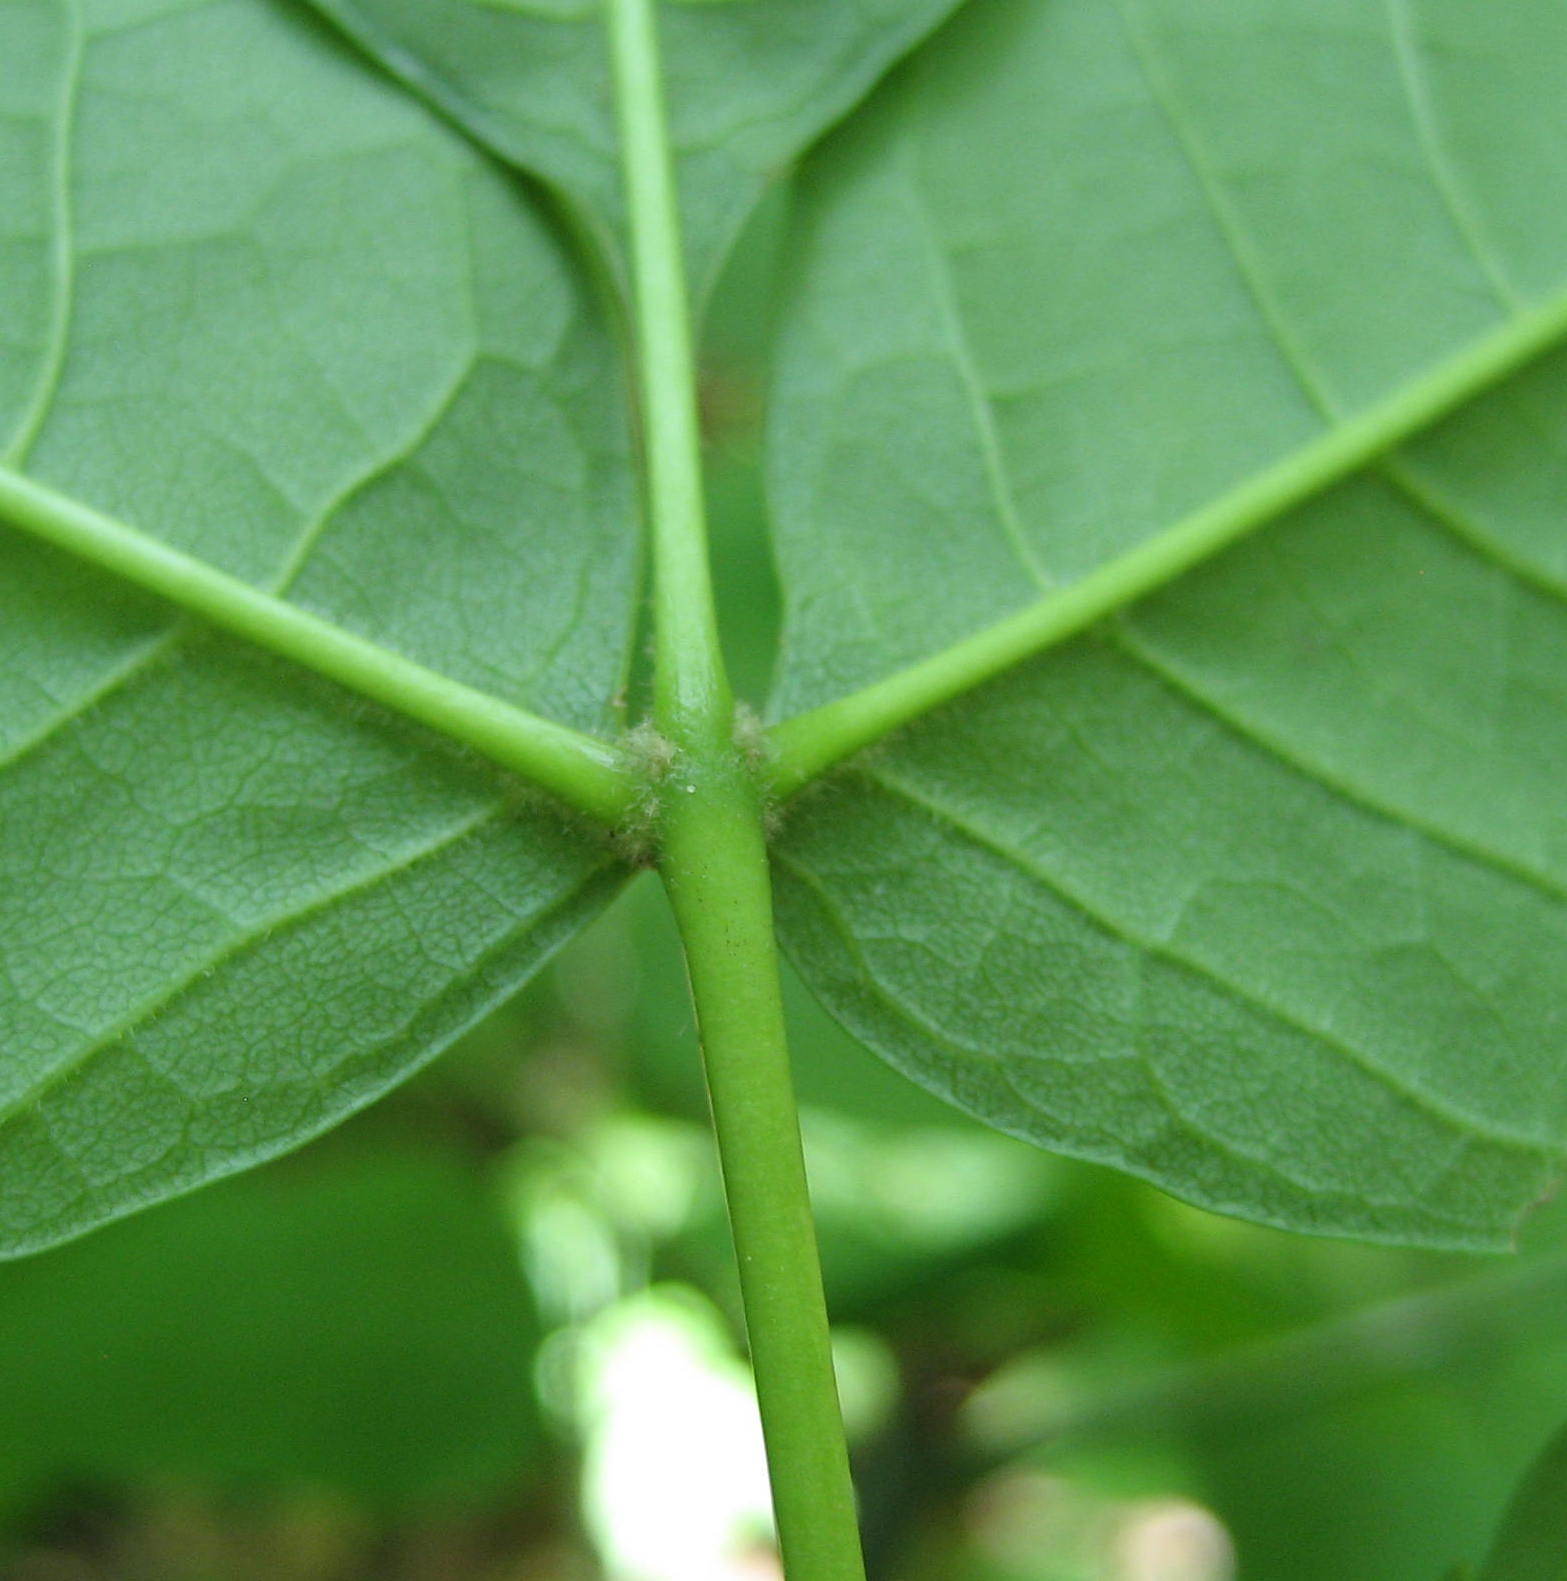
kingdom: Plantae
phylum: Tracheophyta
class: Magnoliopsida
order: Lamiales
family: Oleaceae
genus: Fraxinus
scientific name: Fraxinus nigra
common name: Black ash
